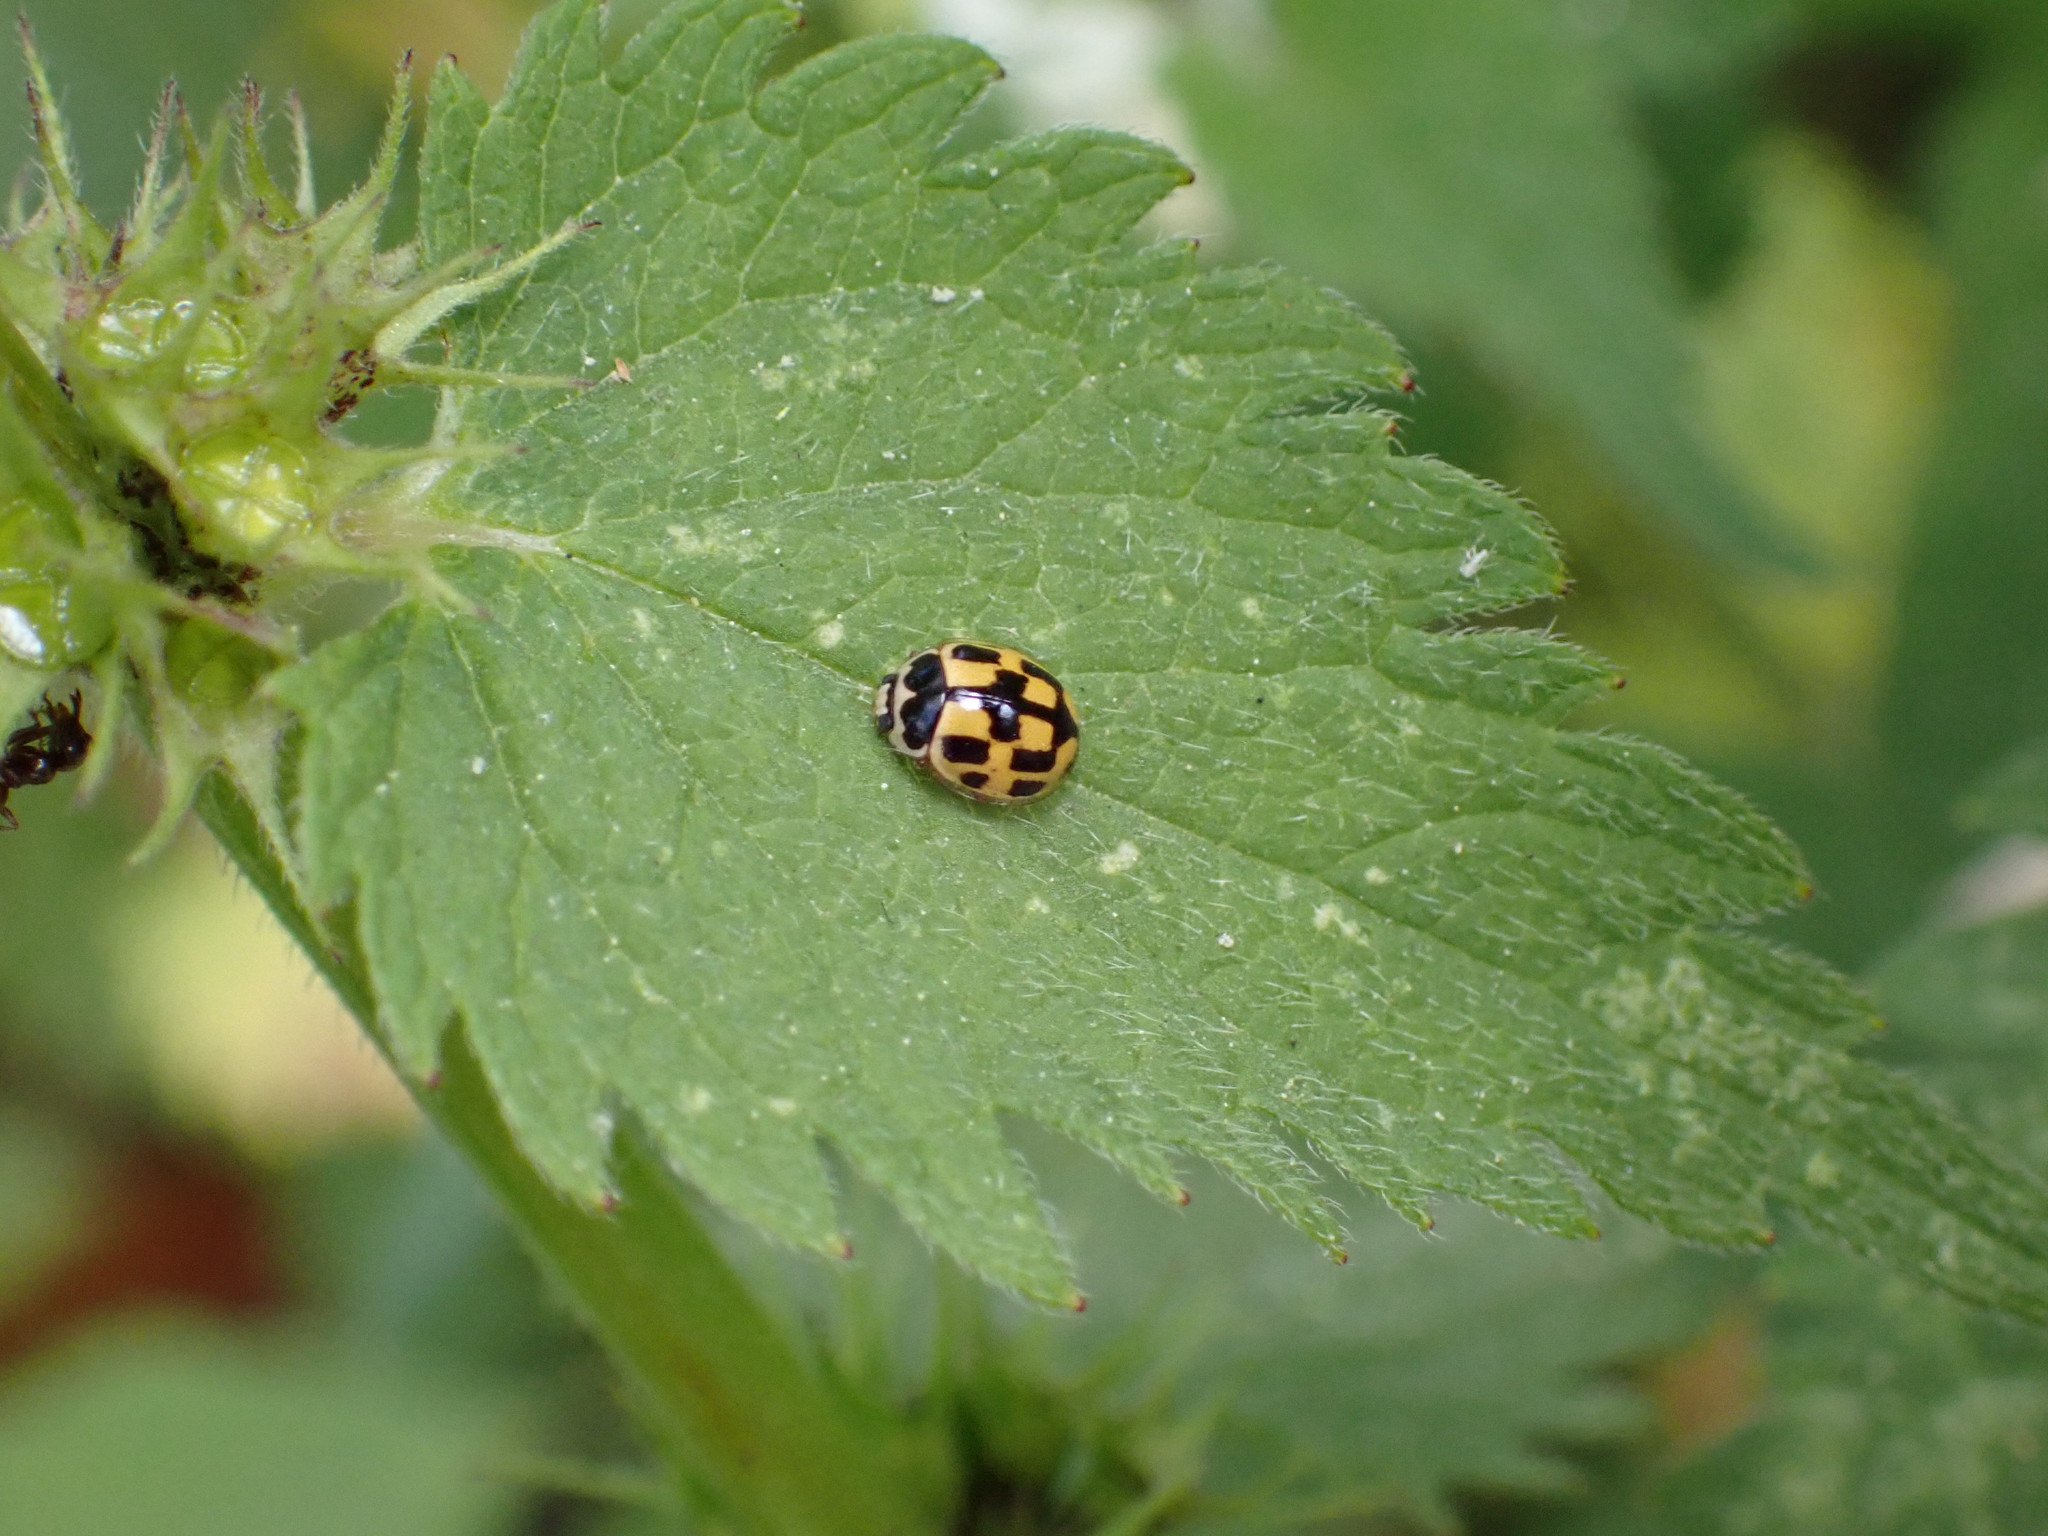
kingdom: Animalia
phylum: Arthropoda
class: Insecta
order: Coleoptera
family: Coccinellidae
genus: Propylaea
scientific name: Propylaea quatuordecimpunctata
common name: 14-spotted ladybird beetle
